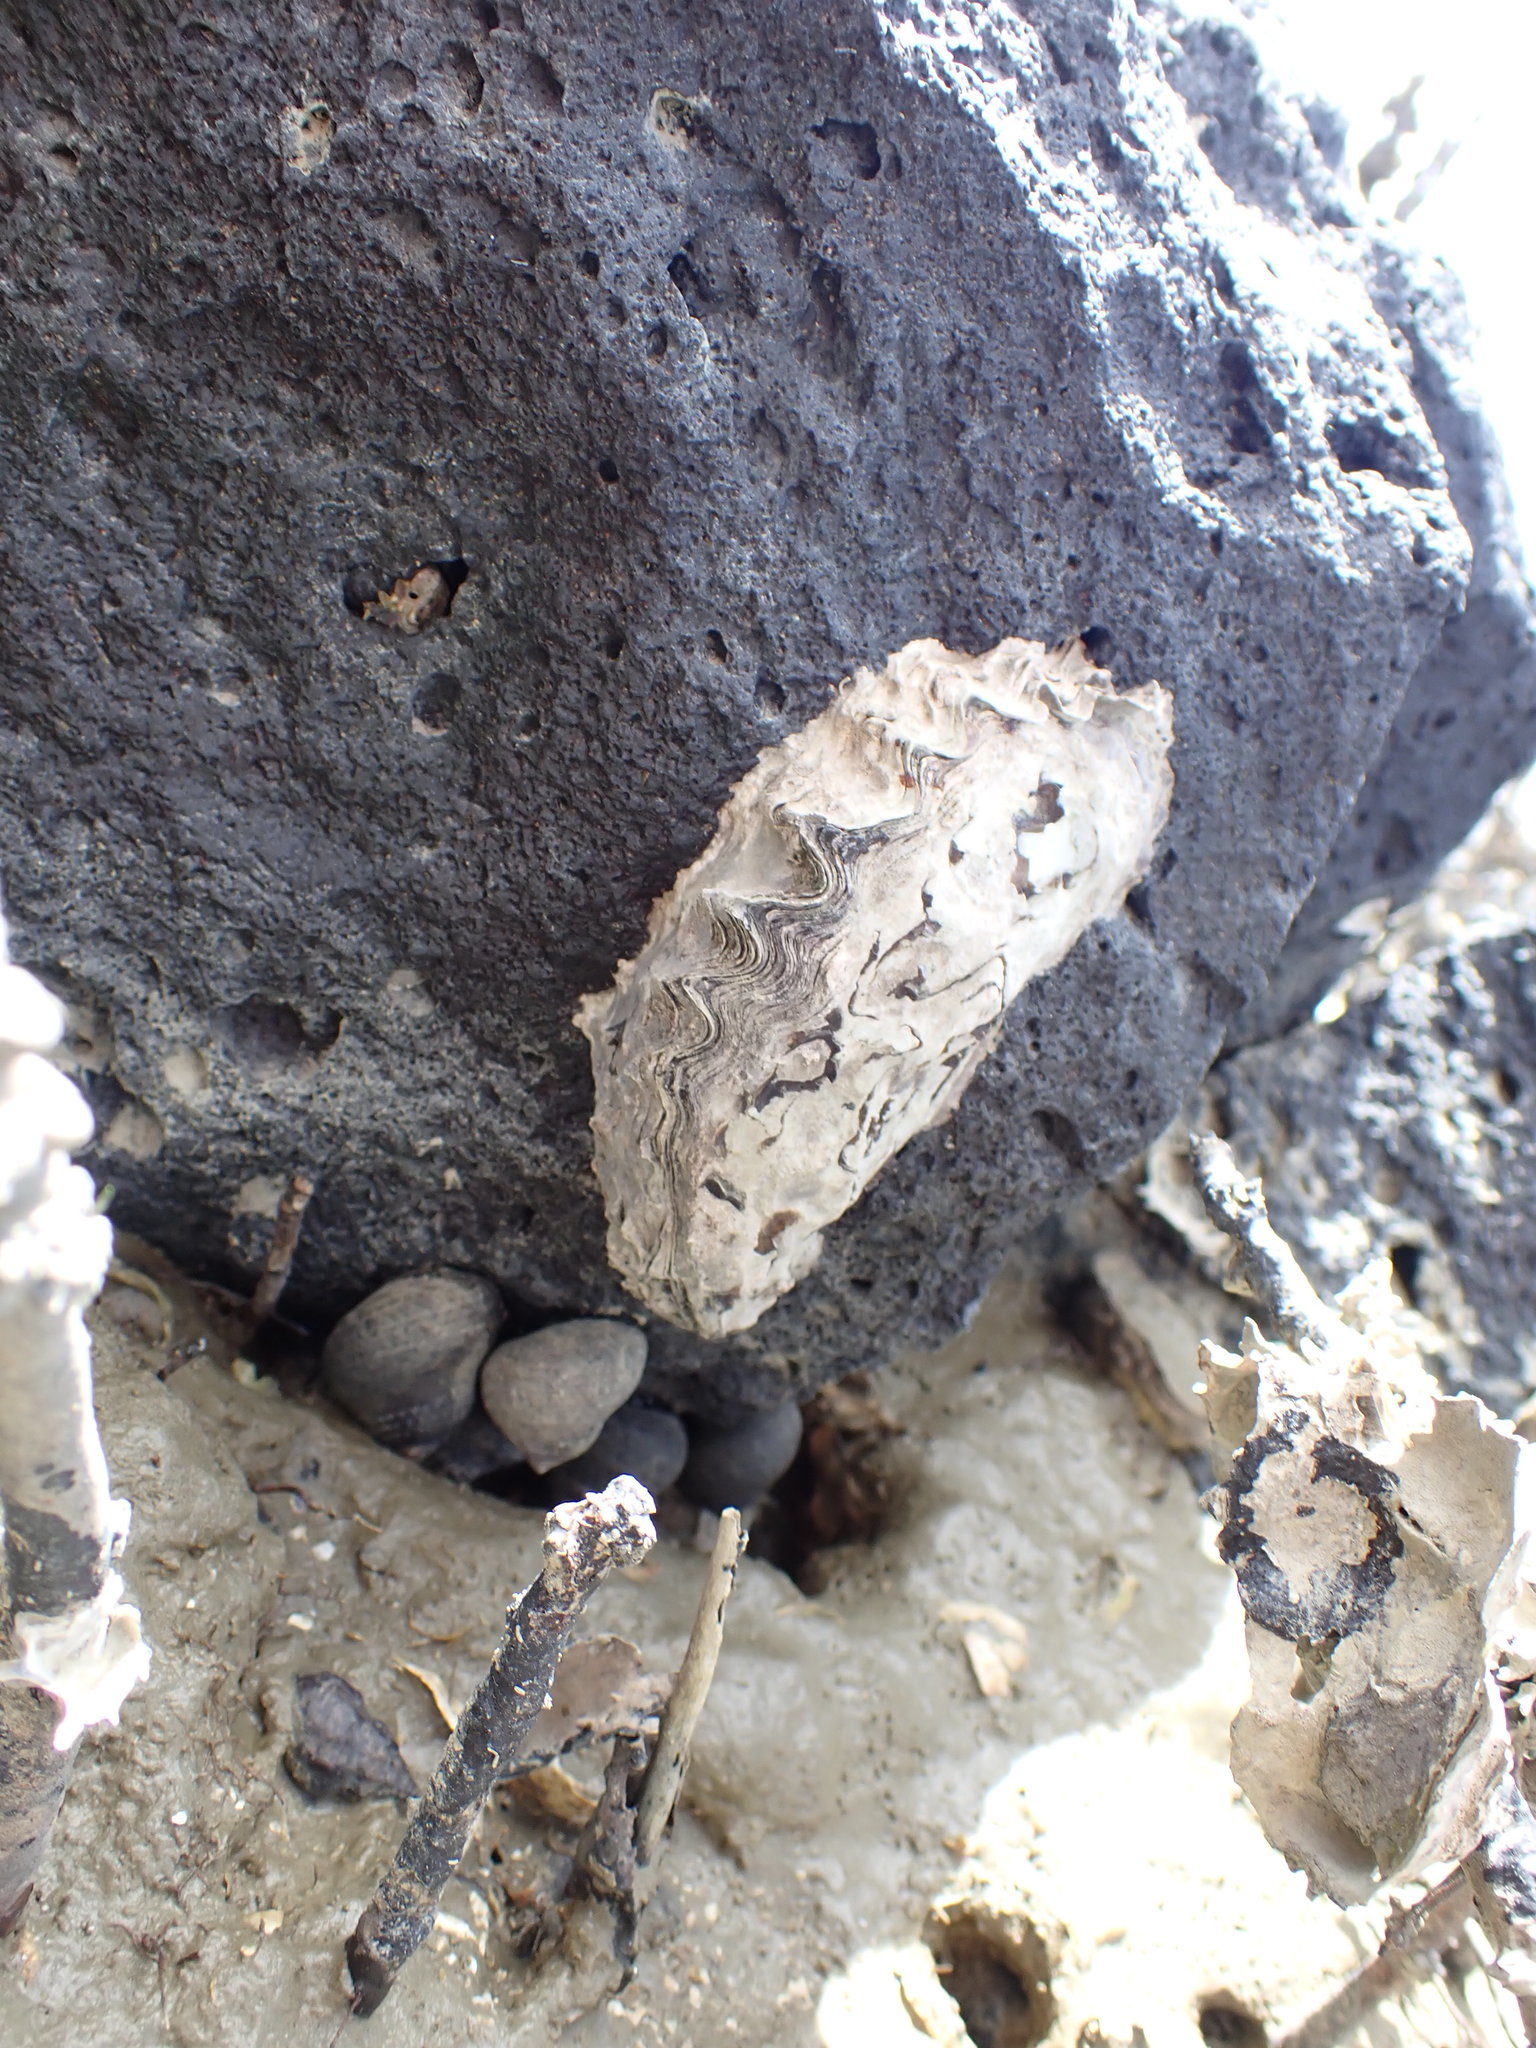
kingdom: Animalia
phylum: Mollusca
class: Bivalvia
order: Ostreida
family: Ostreidae
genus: Saccostrea
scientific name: Saccostrea glomerata
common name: Sydney cupped oyster
